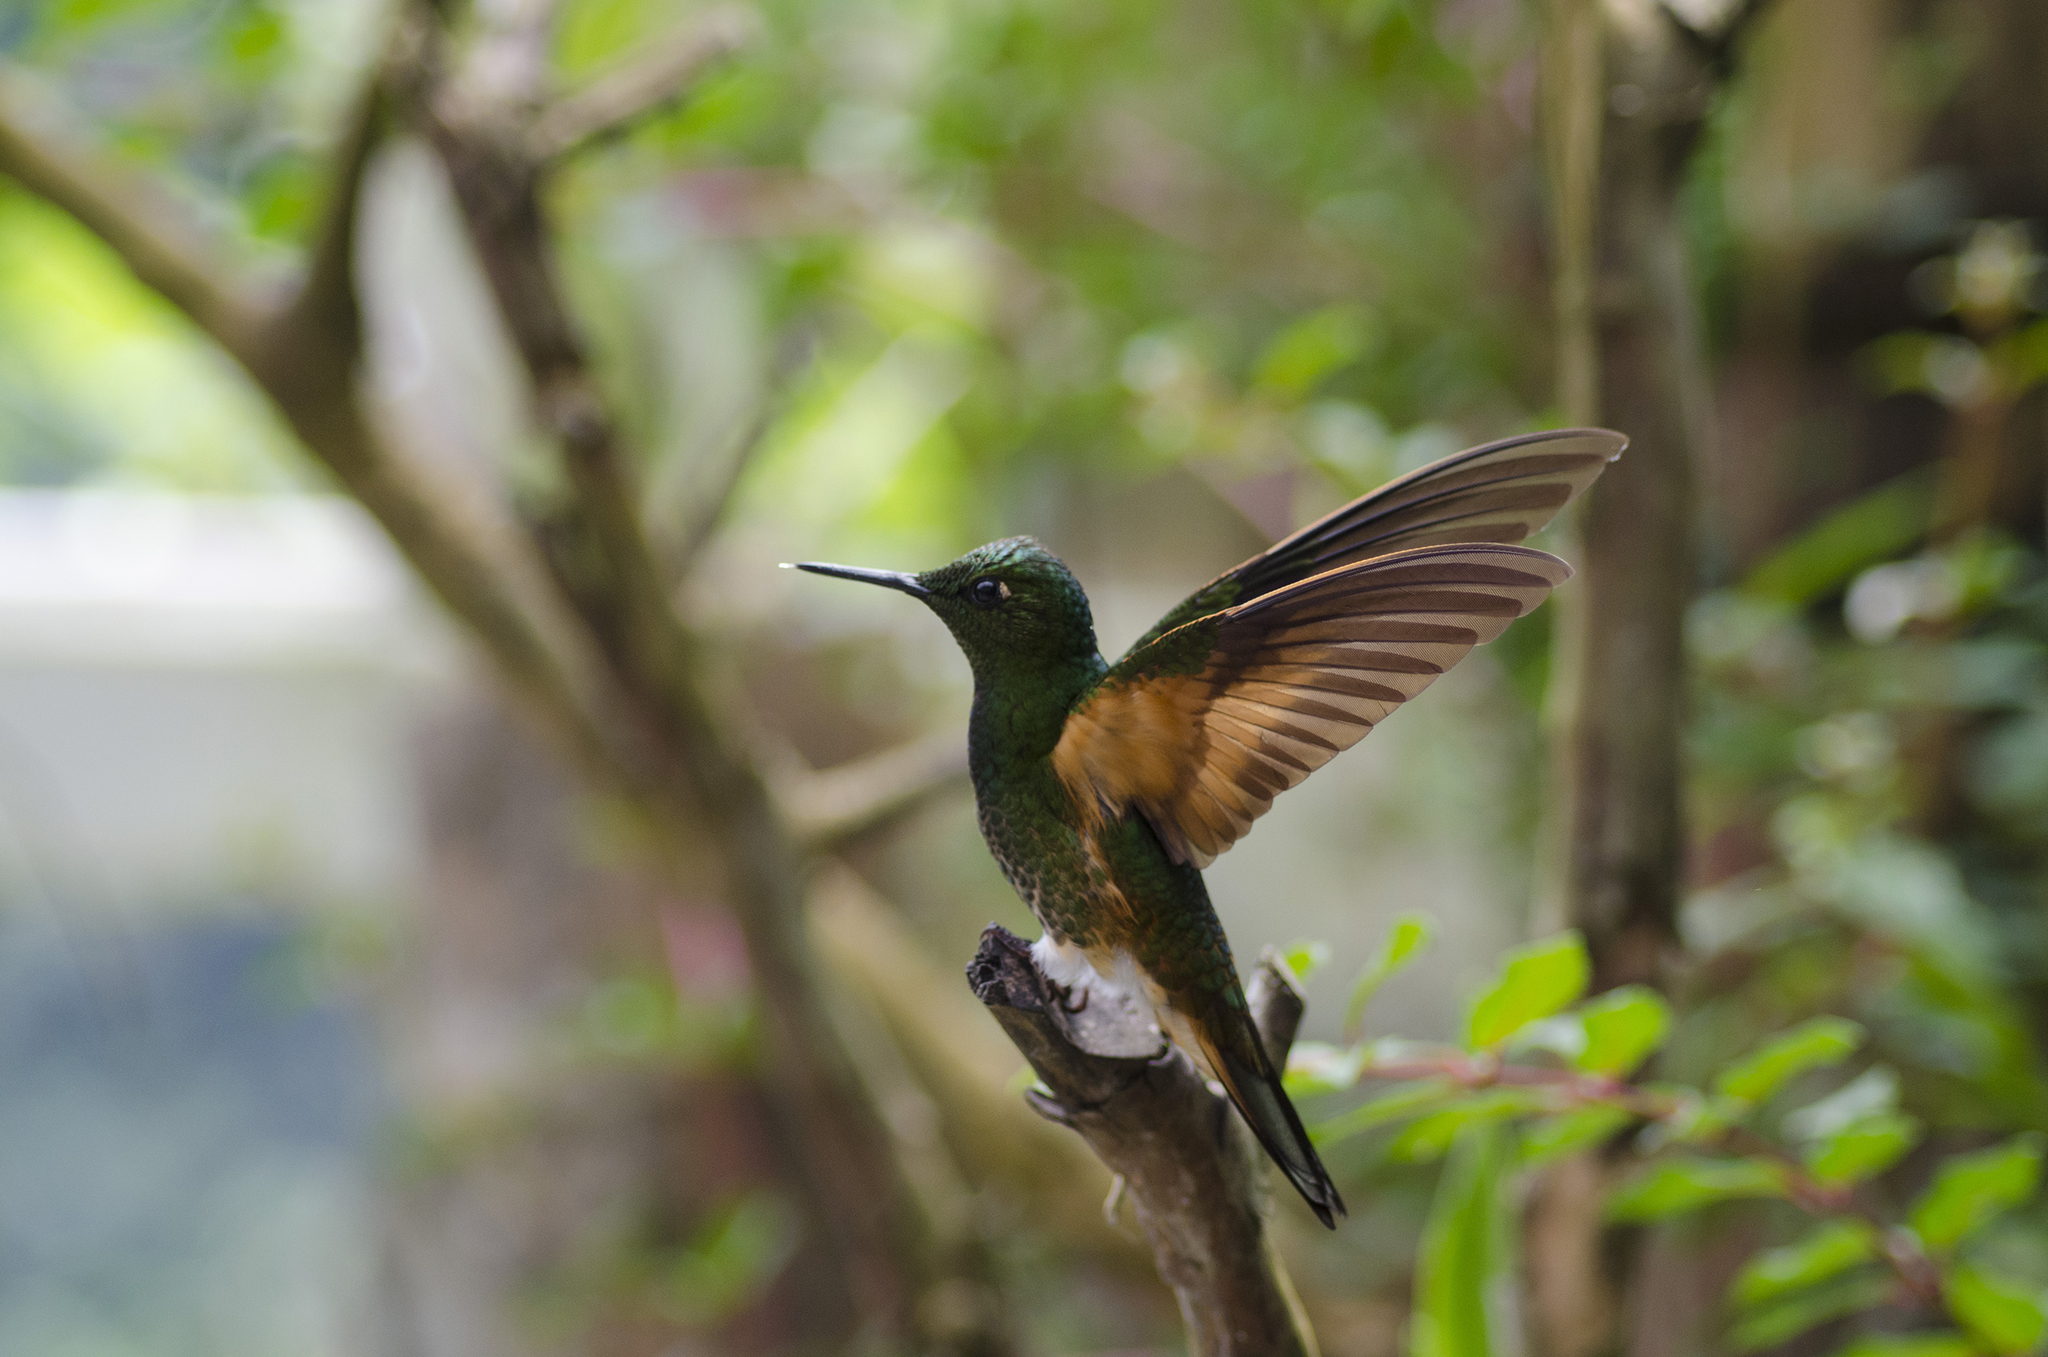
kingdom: Animalia
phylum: Chordata
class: Aves
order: Apodiformes
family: Trochilidae
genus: Boissonneaua
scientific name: Boissonneaua flavescens
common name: Buff-tailed coronet
